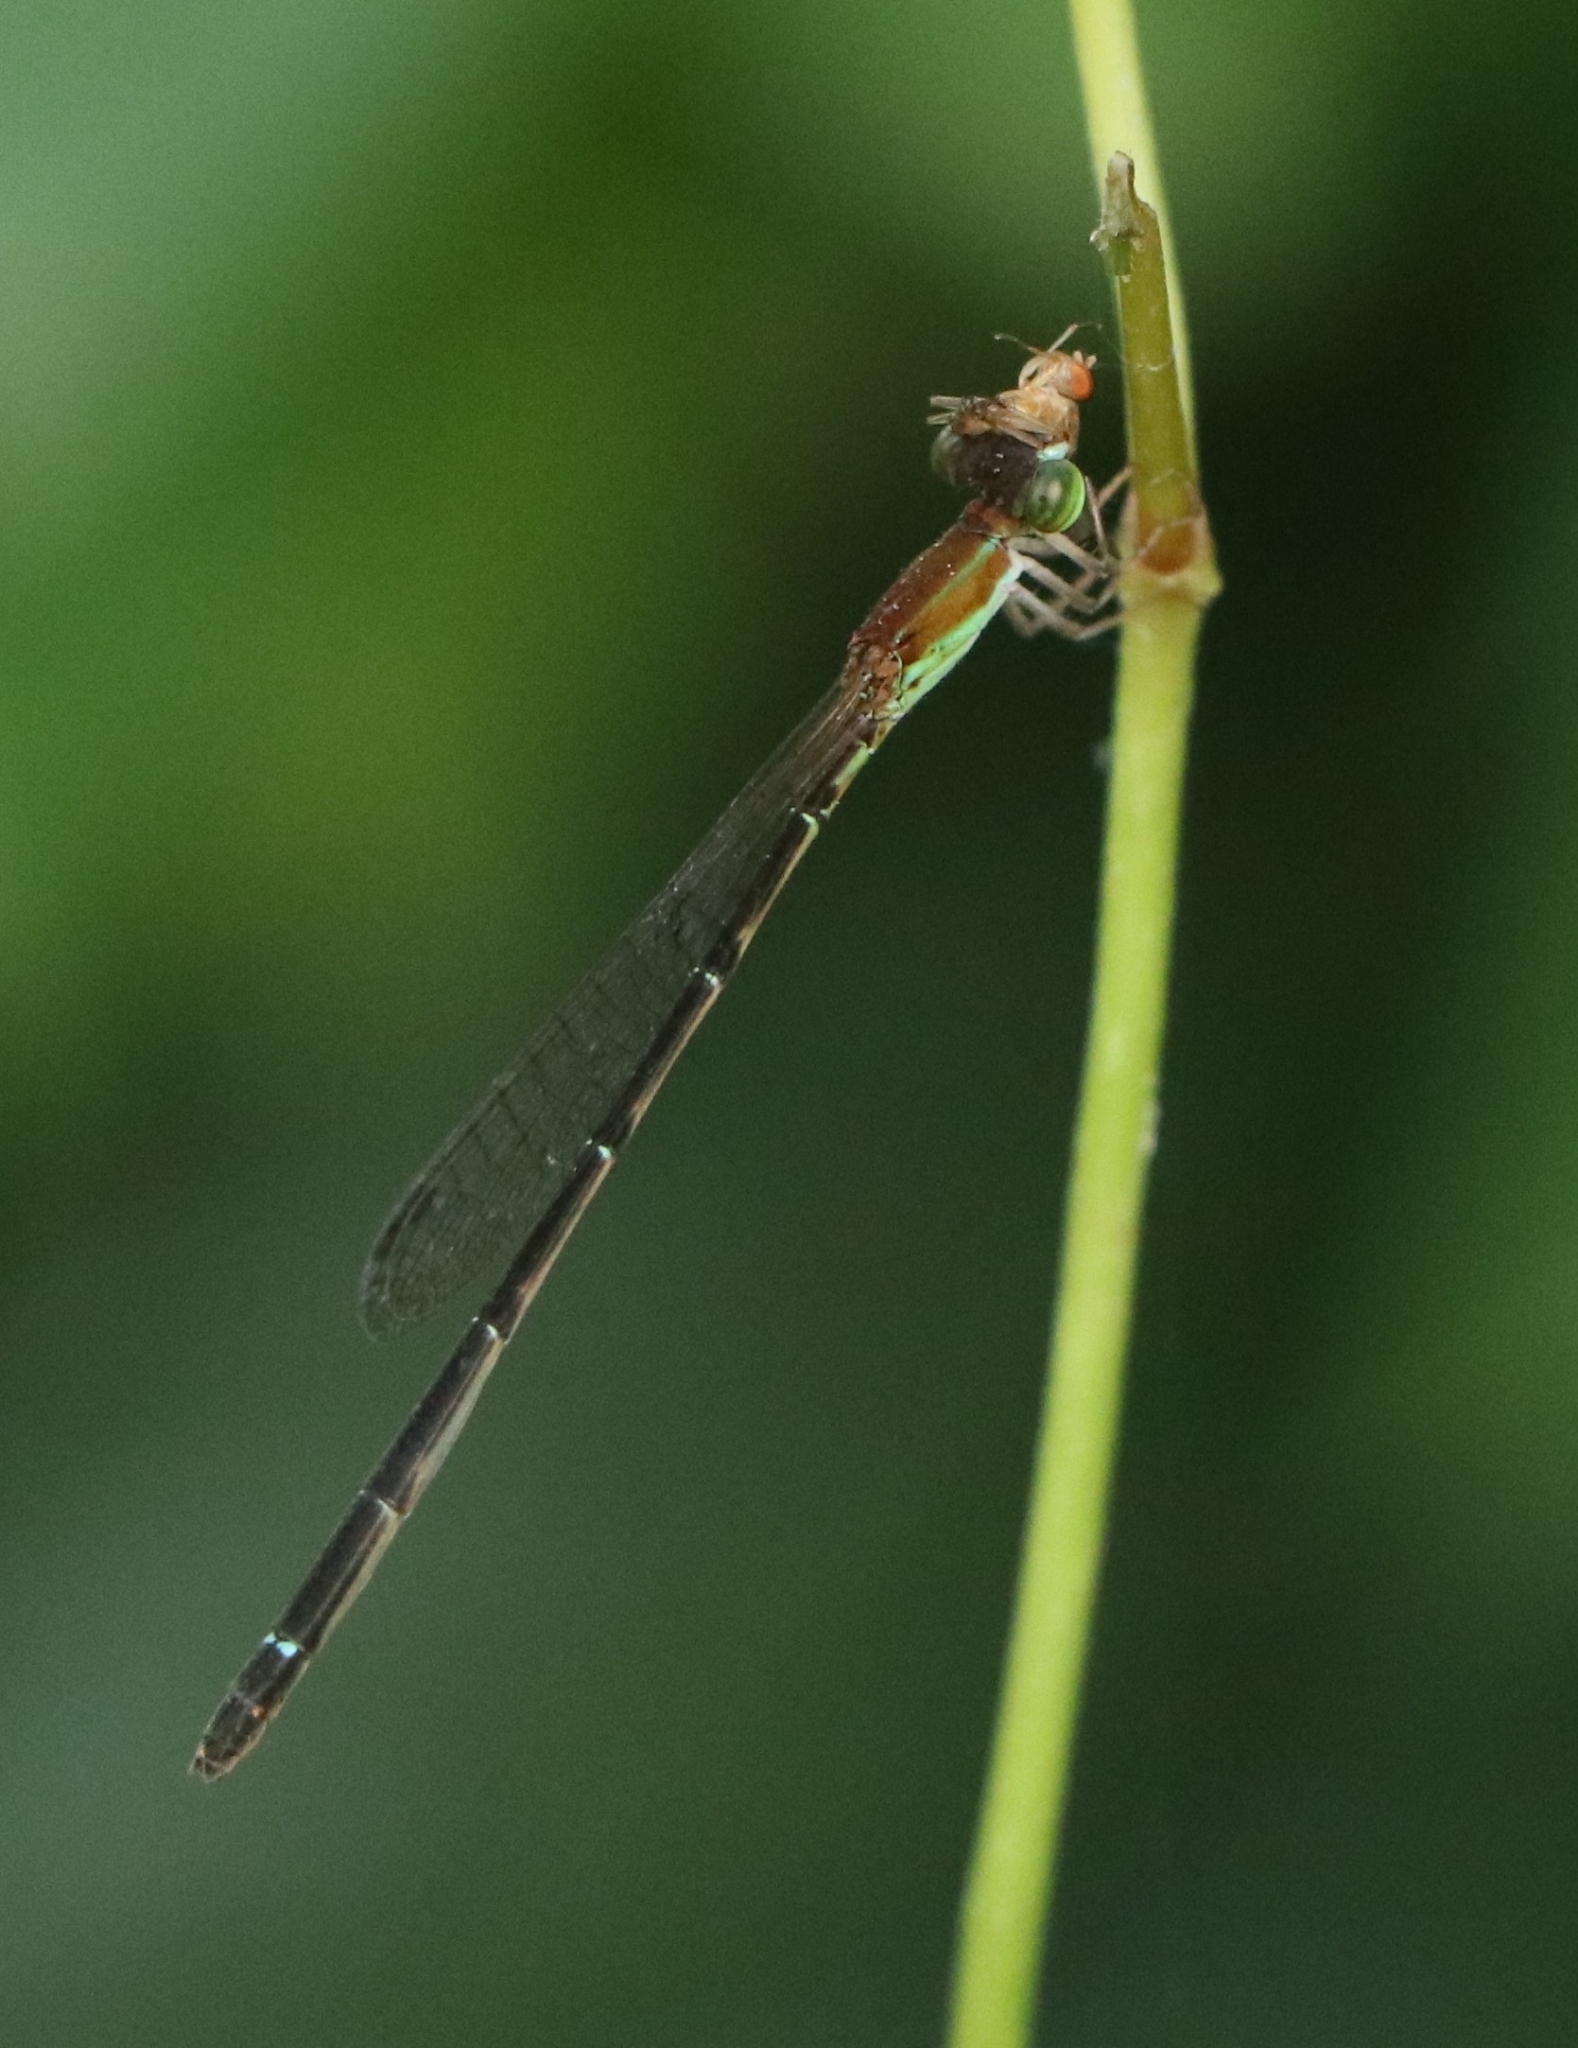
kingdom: Animalia
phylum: Arthropoda
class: Insecta
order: Odonata
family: Coenagrionidae
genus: Mortonagrion
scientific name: Mortonagrion varralli
